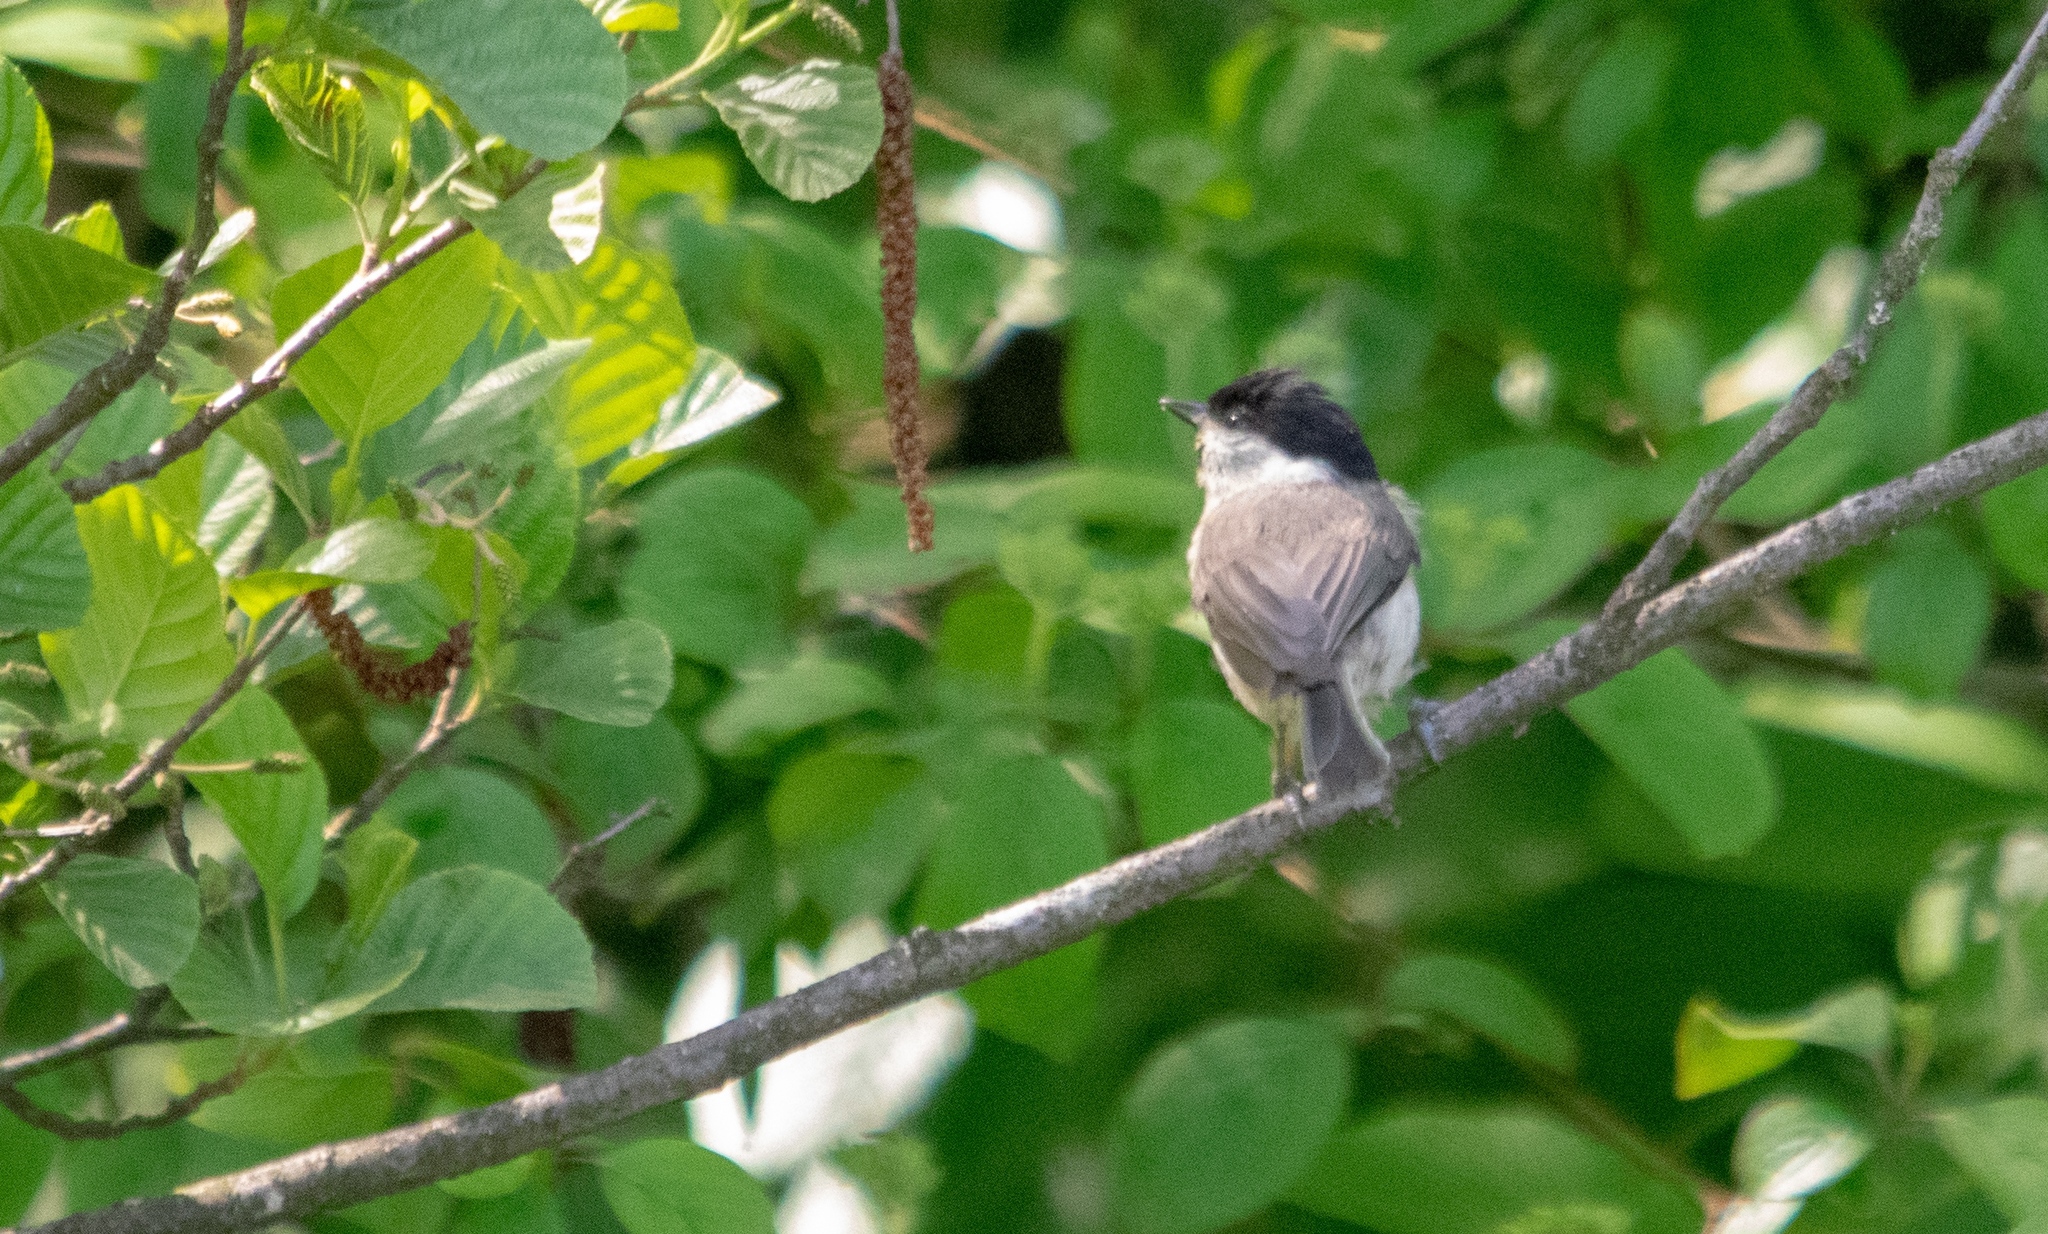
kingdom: Animalia
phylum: Chordata
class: Aves
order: Passeriformes
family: Paridae
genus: Poecile
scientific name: Poecile palustris
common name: Marsh tit
